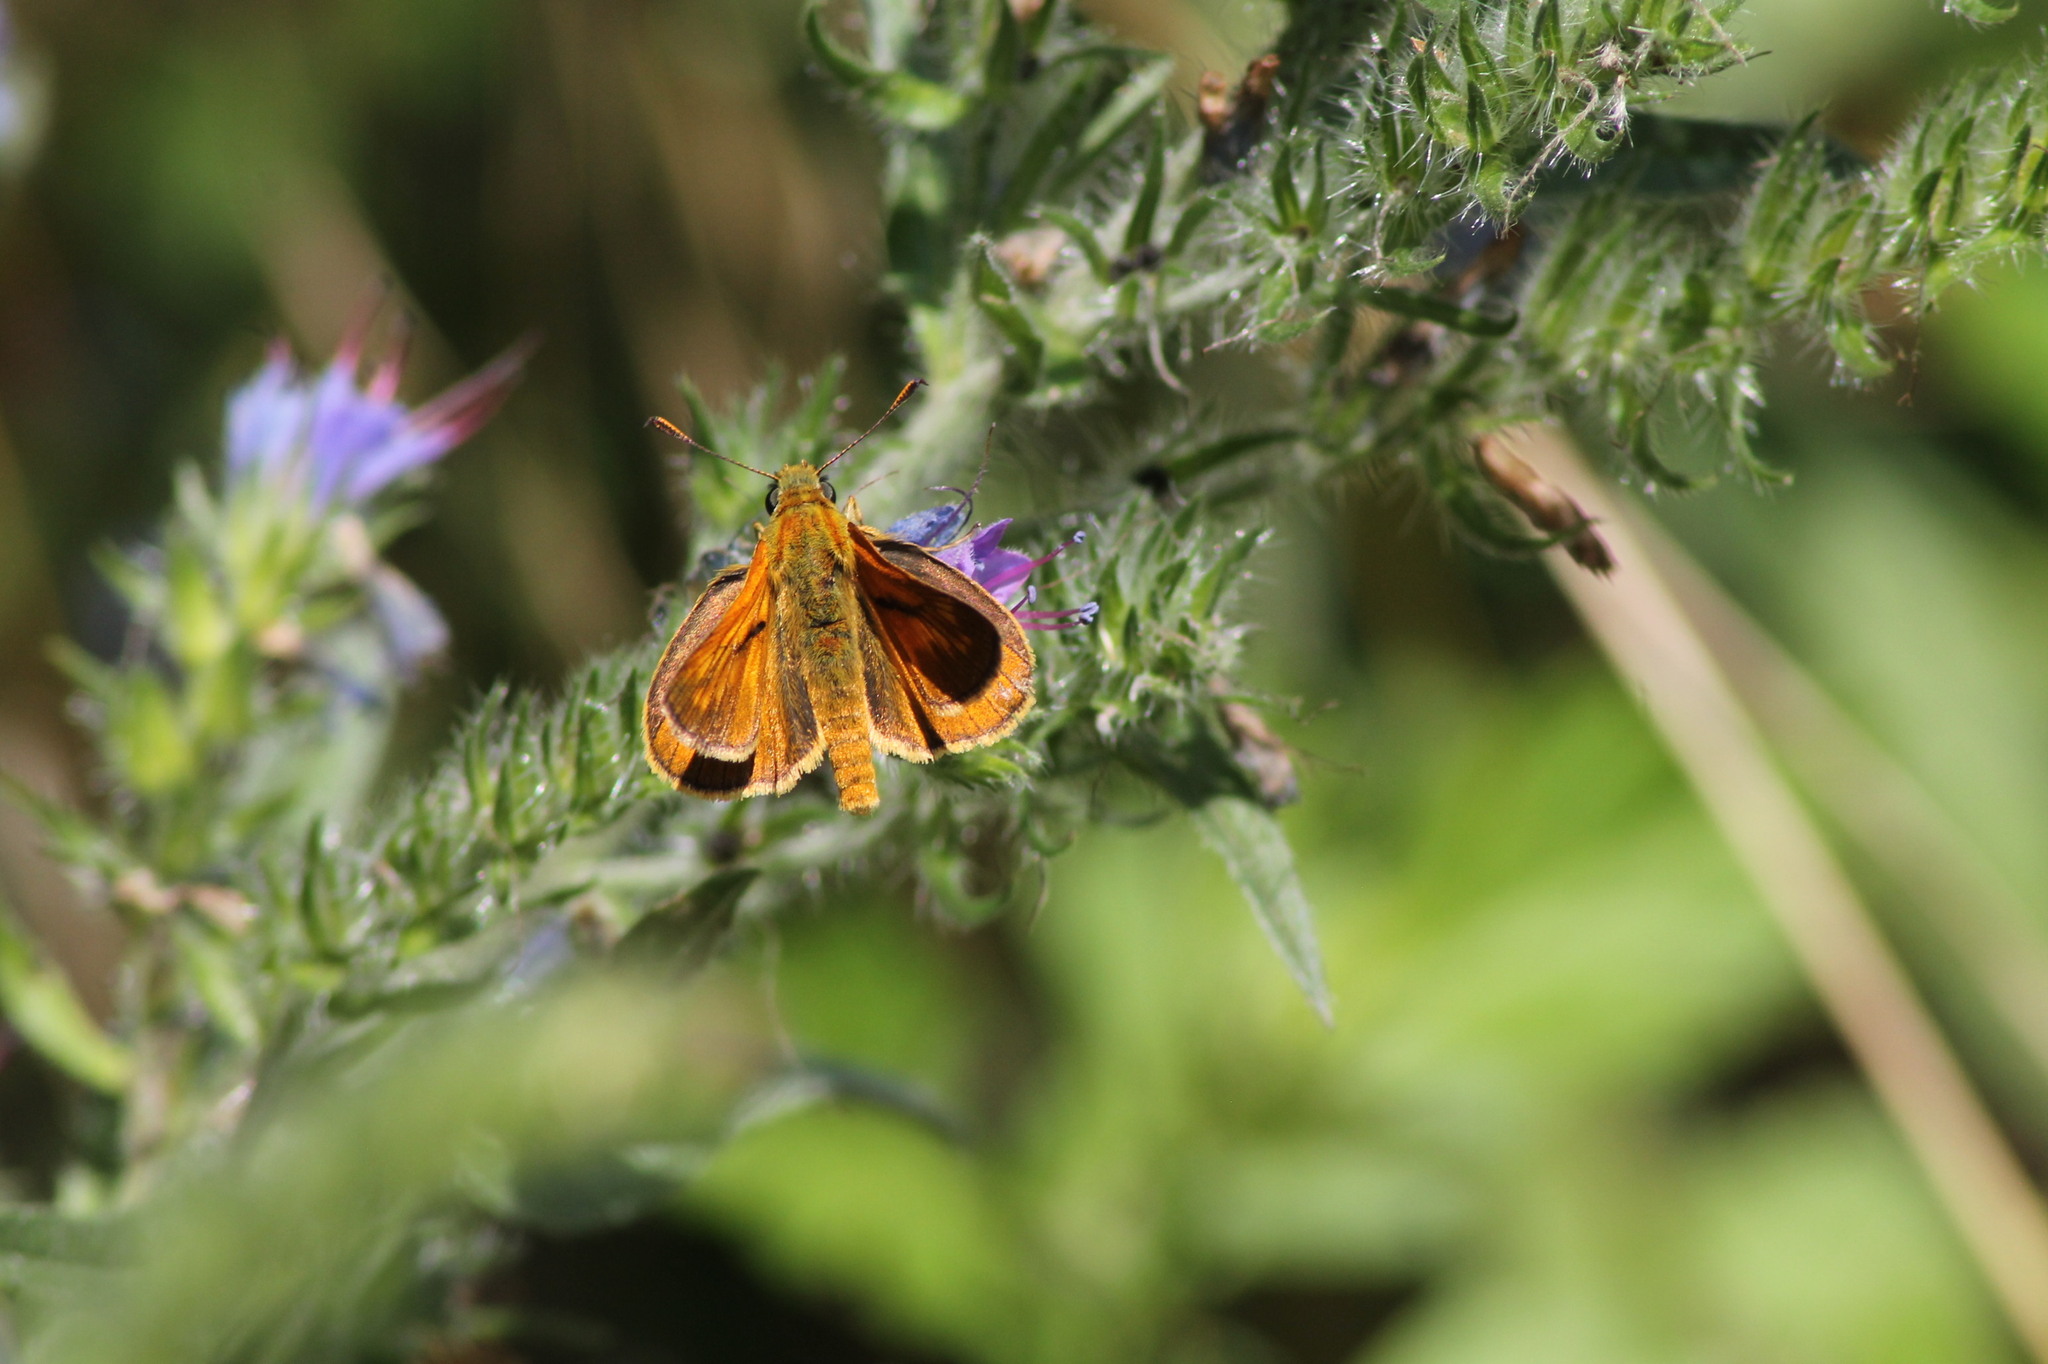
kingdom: Animalia
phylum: Arthropoda
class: Insecta
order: Lepidoptera
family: Hesperiidae
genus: Ochlodes
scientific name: Ochlodes venata
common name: Large skipper
